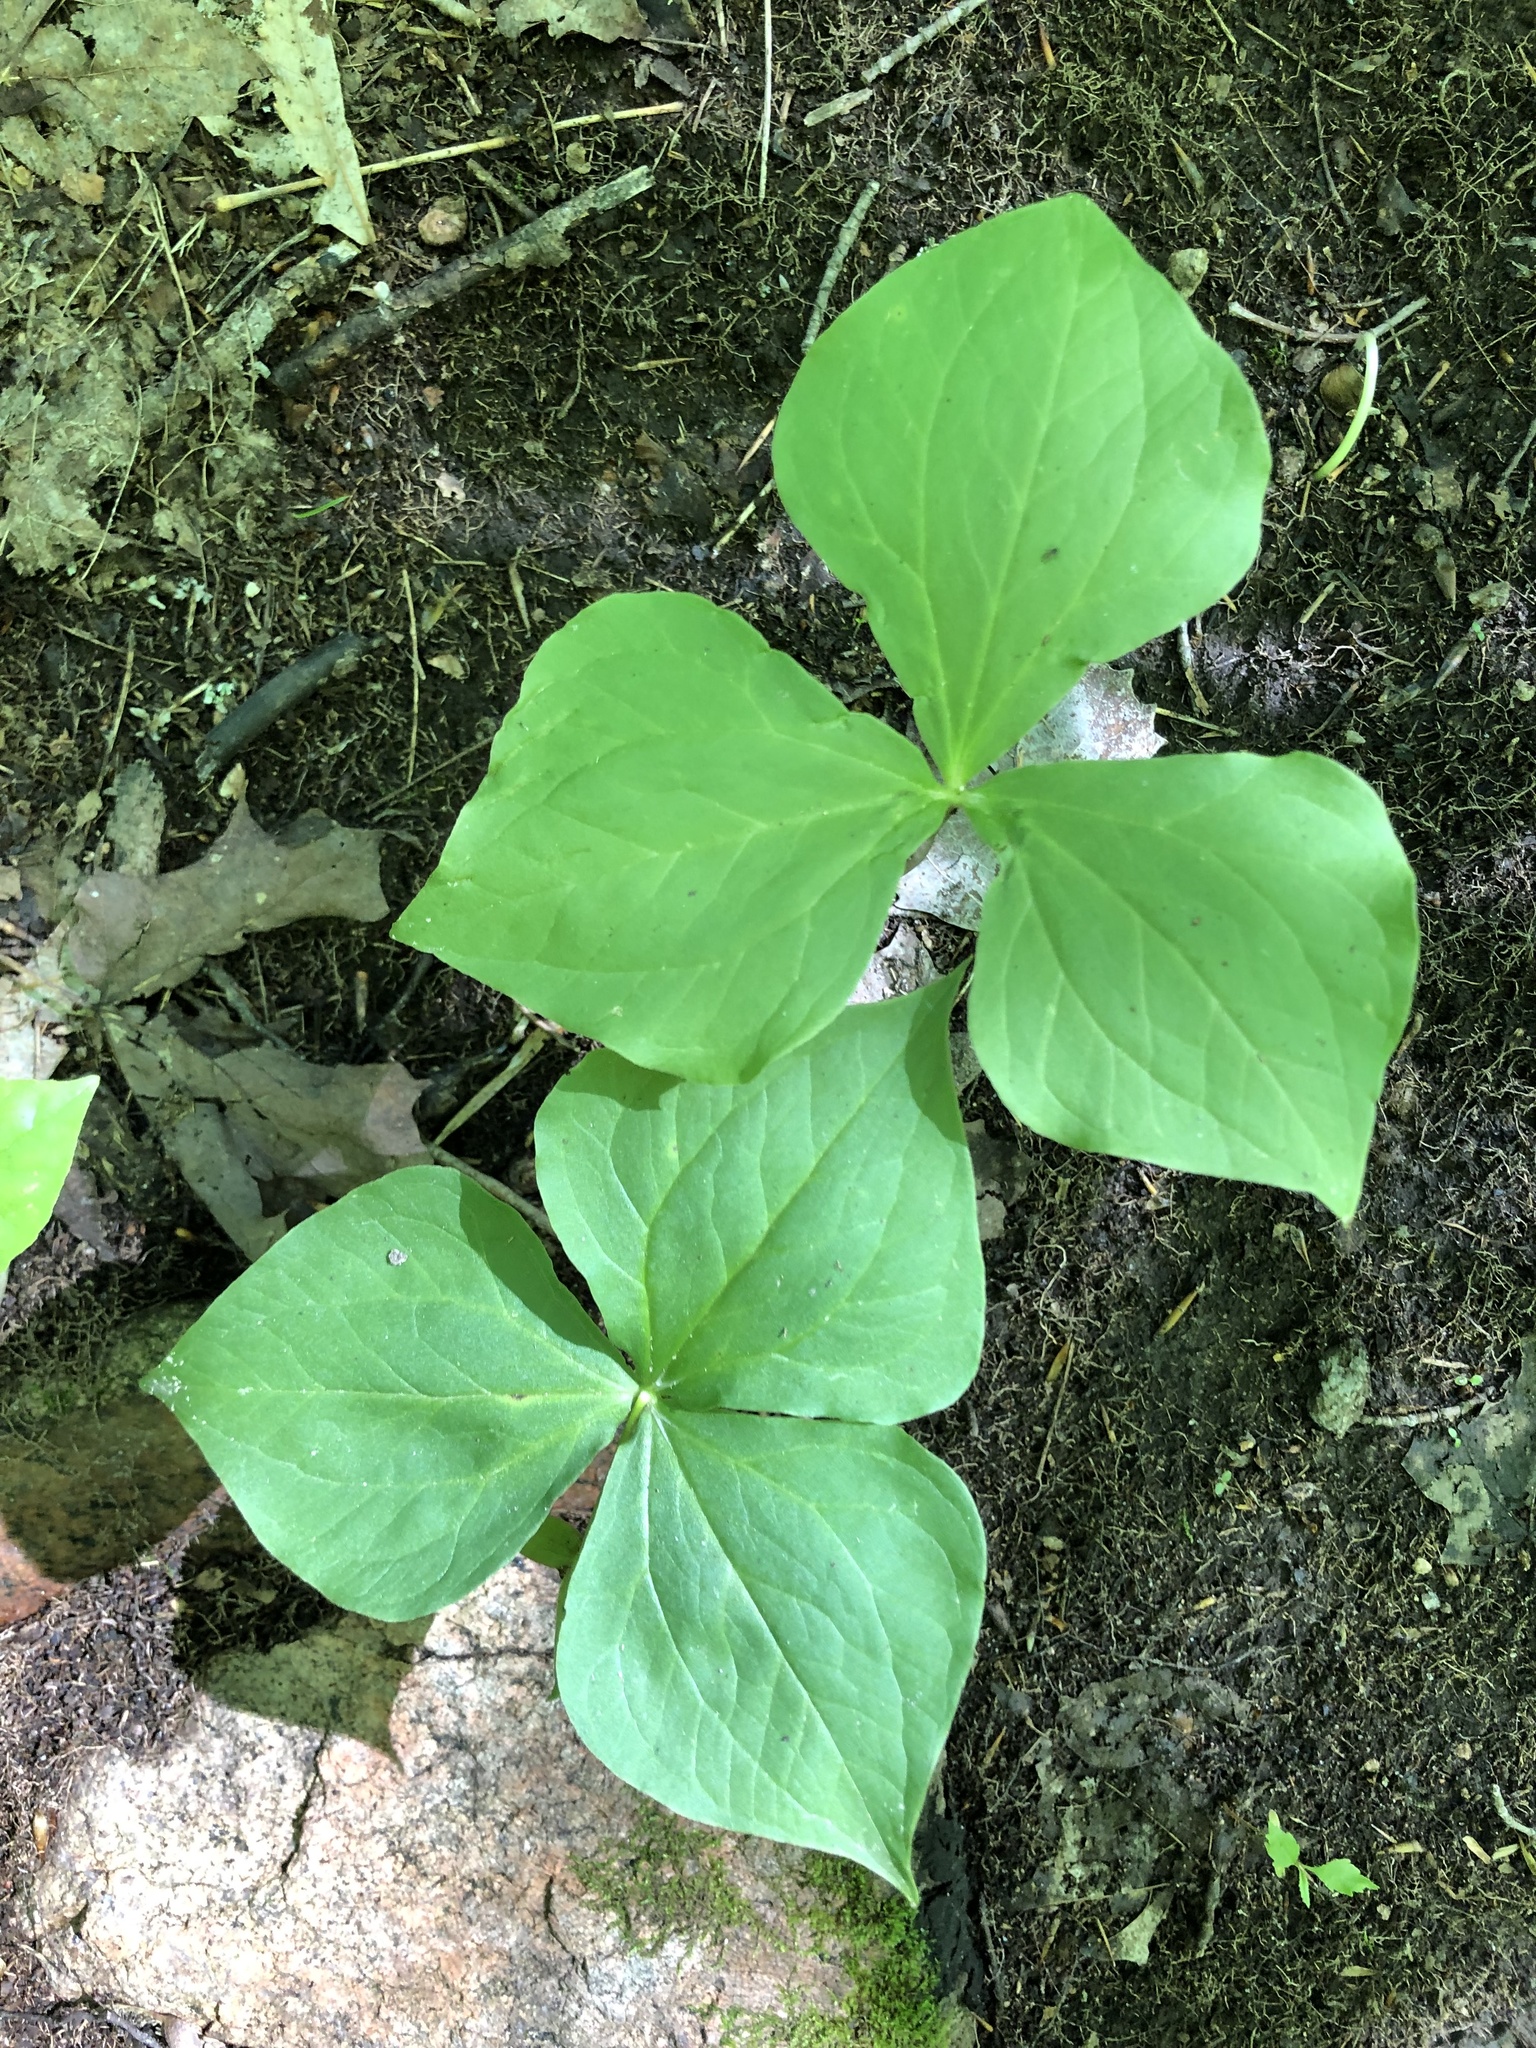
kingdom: Plantae
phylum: Tracheophyta
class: Liliopsida
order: Liliales
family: Melanthiaceae
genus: Trillium
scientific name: Trillium erectum
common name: Purple trillium
